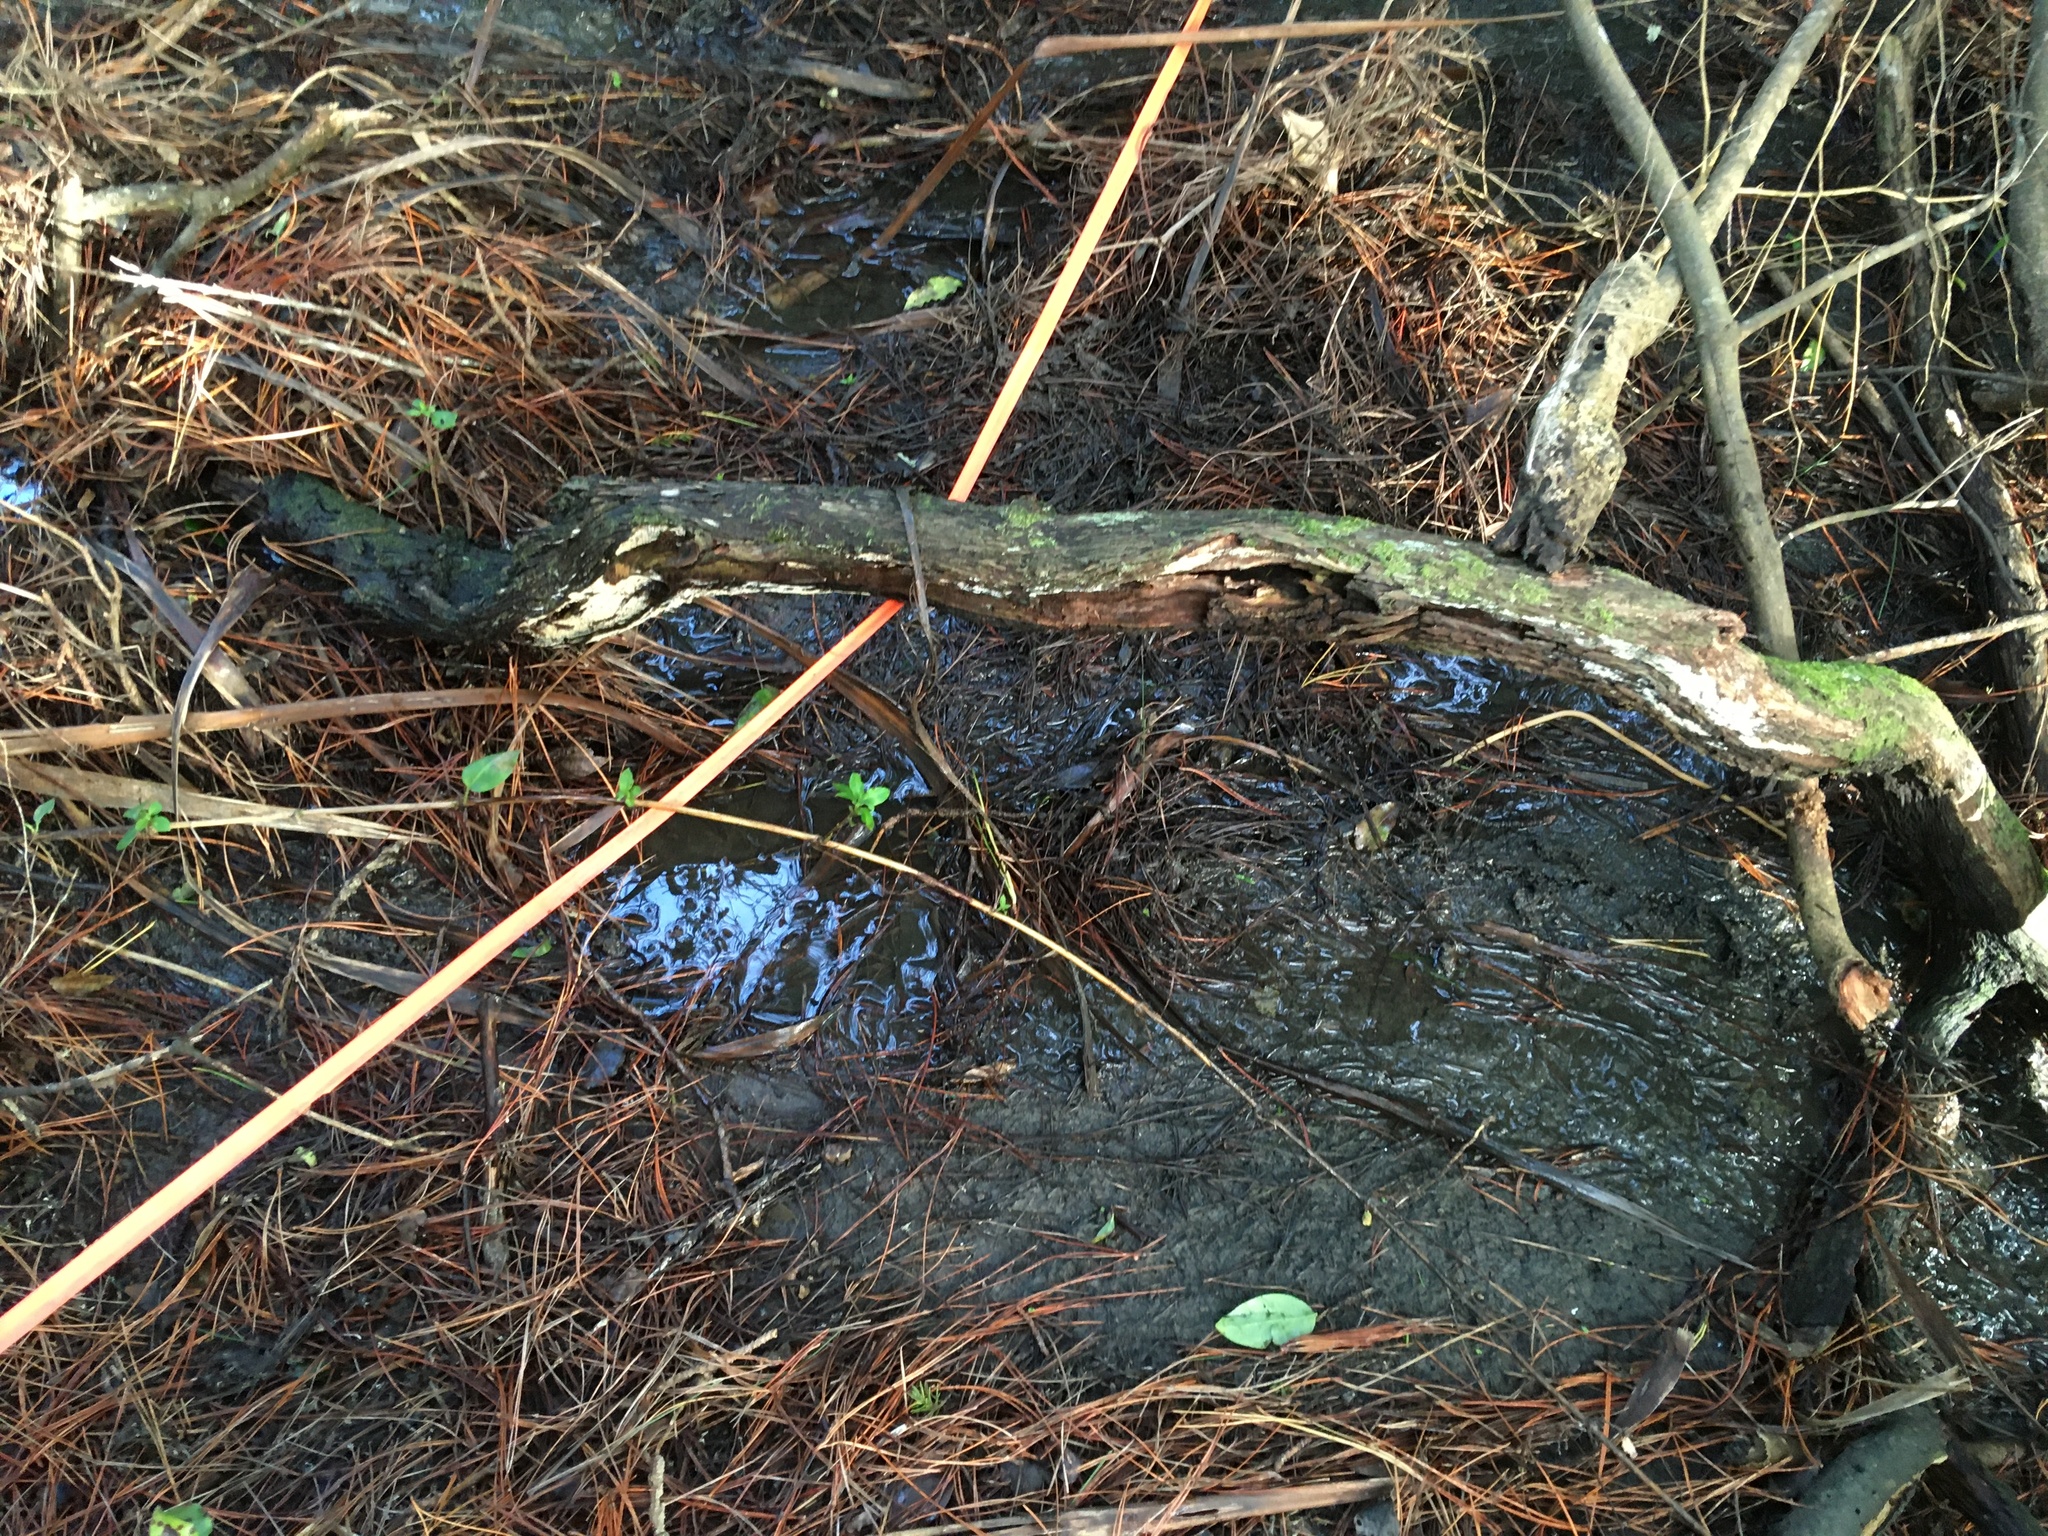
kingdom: Plantae
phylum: Tracheophyta
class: Magnoliopsida
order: Dipsacales
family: Caprifoliaceae
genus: Lonicera
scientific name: Lonicera japonica
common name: Japanese honeysuckle
